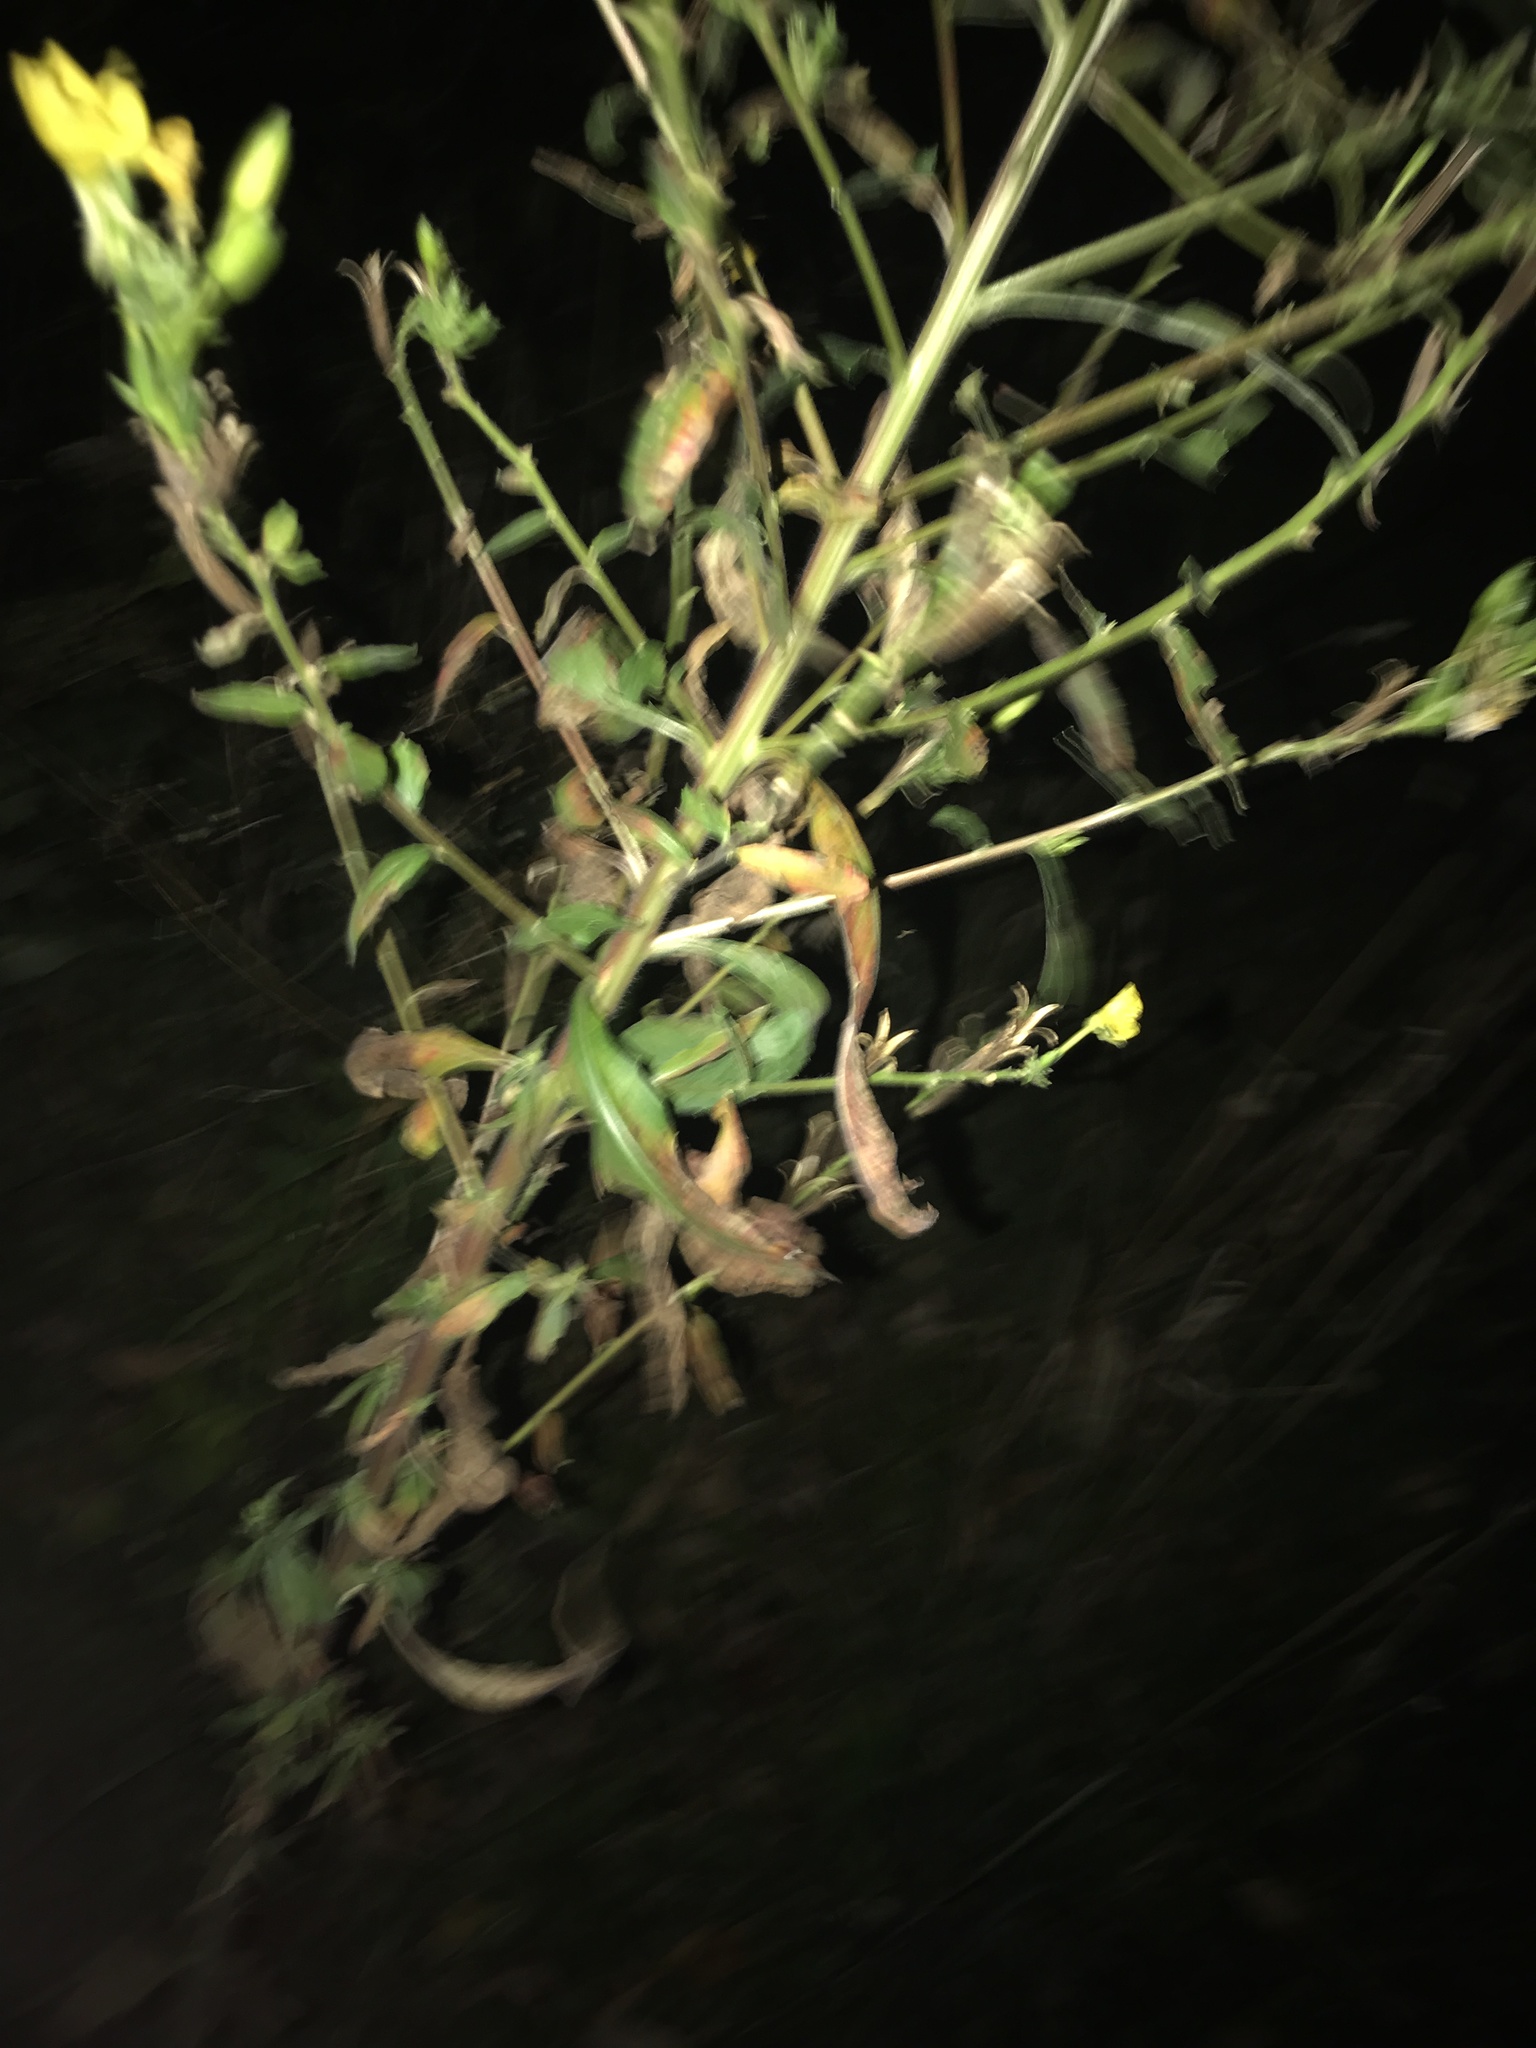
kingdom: Plantae
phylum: Tracheophyta
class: Magnoliopsida
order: Myrtales
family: Onagraceae
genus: Oenothera
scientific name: Oenothera
